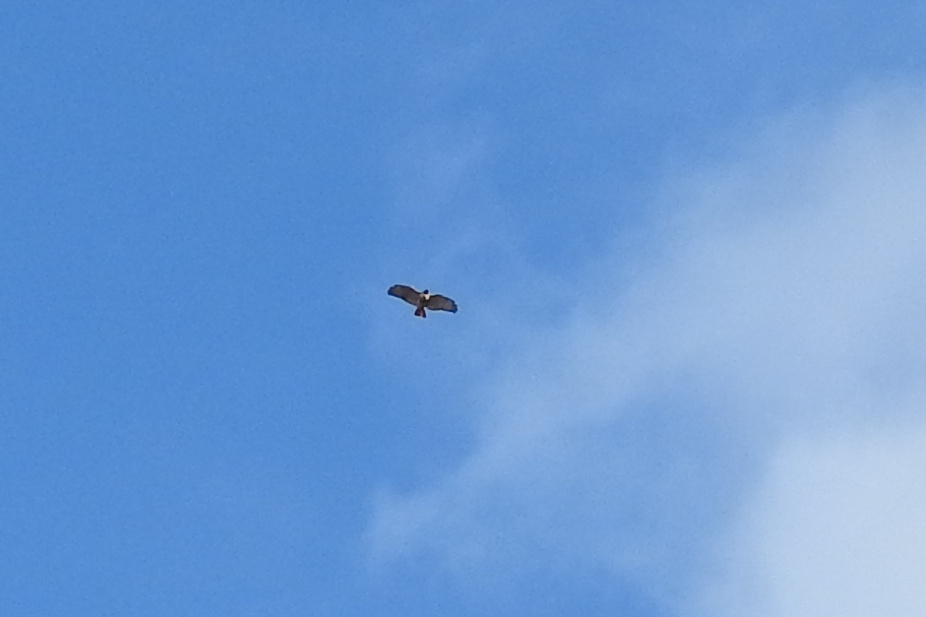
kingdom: Animalia
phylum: Chordata
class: Aves
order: Accipitriformes
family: Accipitridae
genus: Buteo
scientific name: Buteo jamaicensis
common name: Red-tailed hawk
